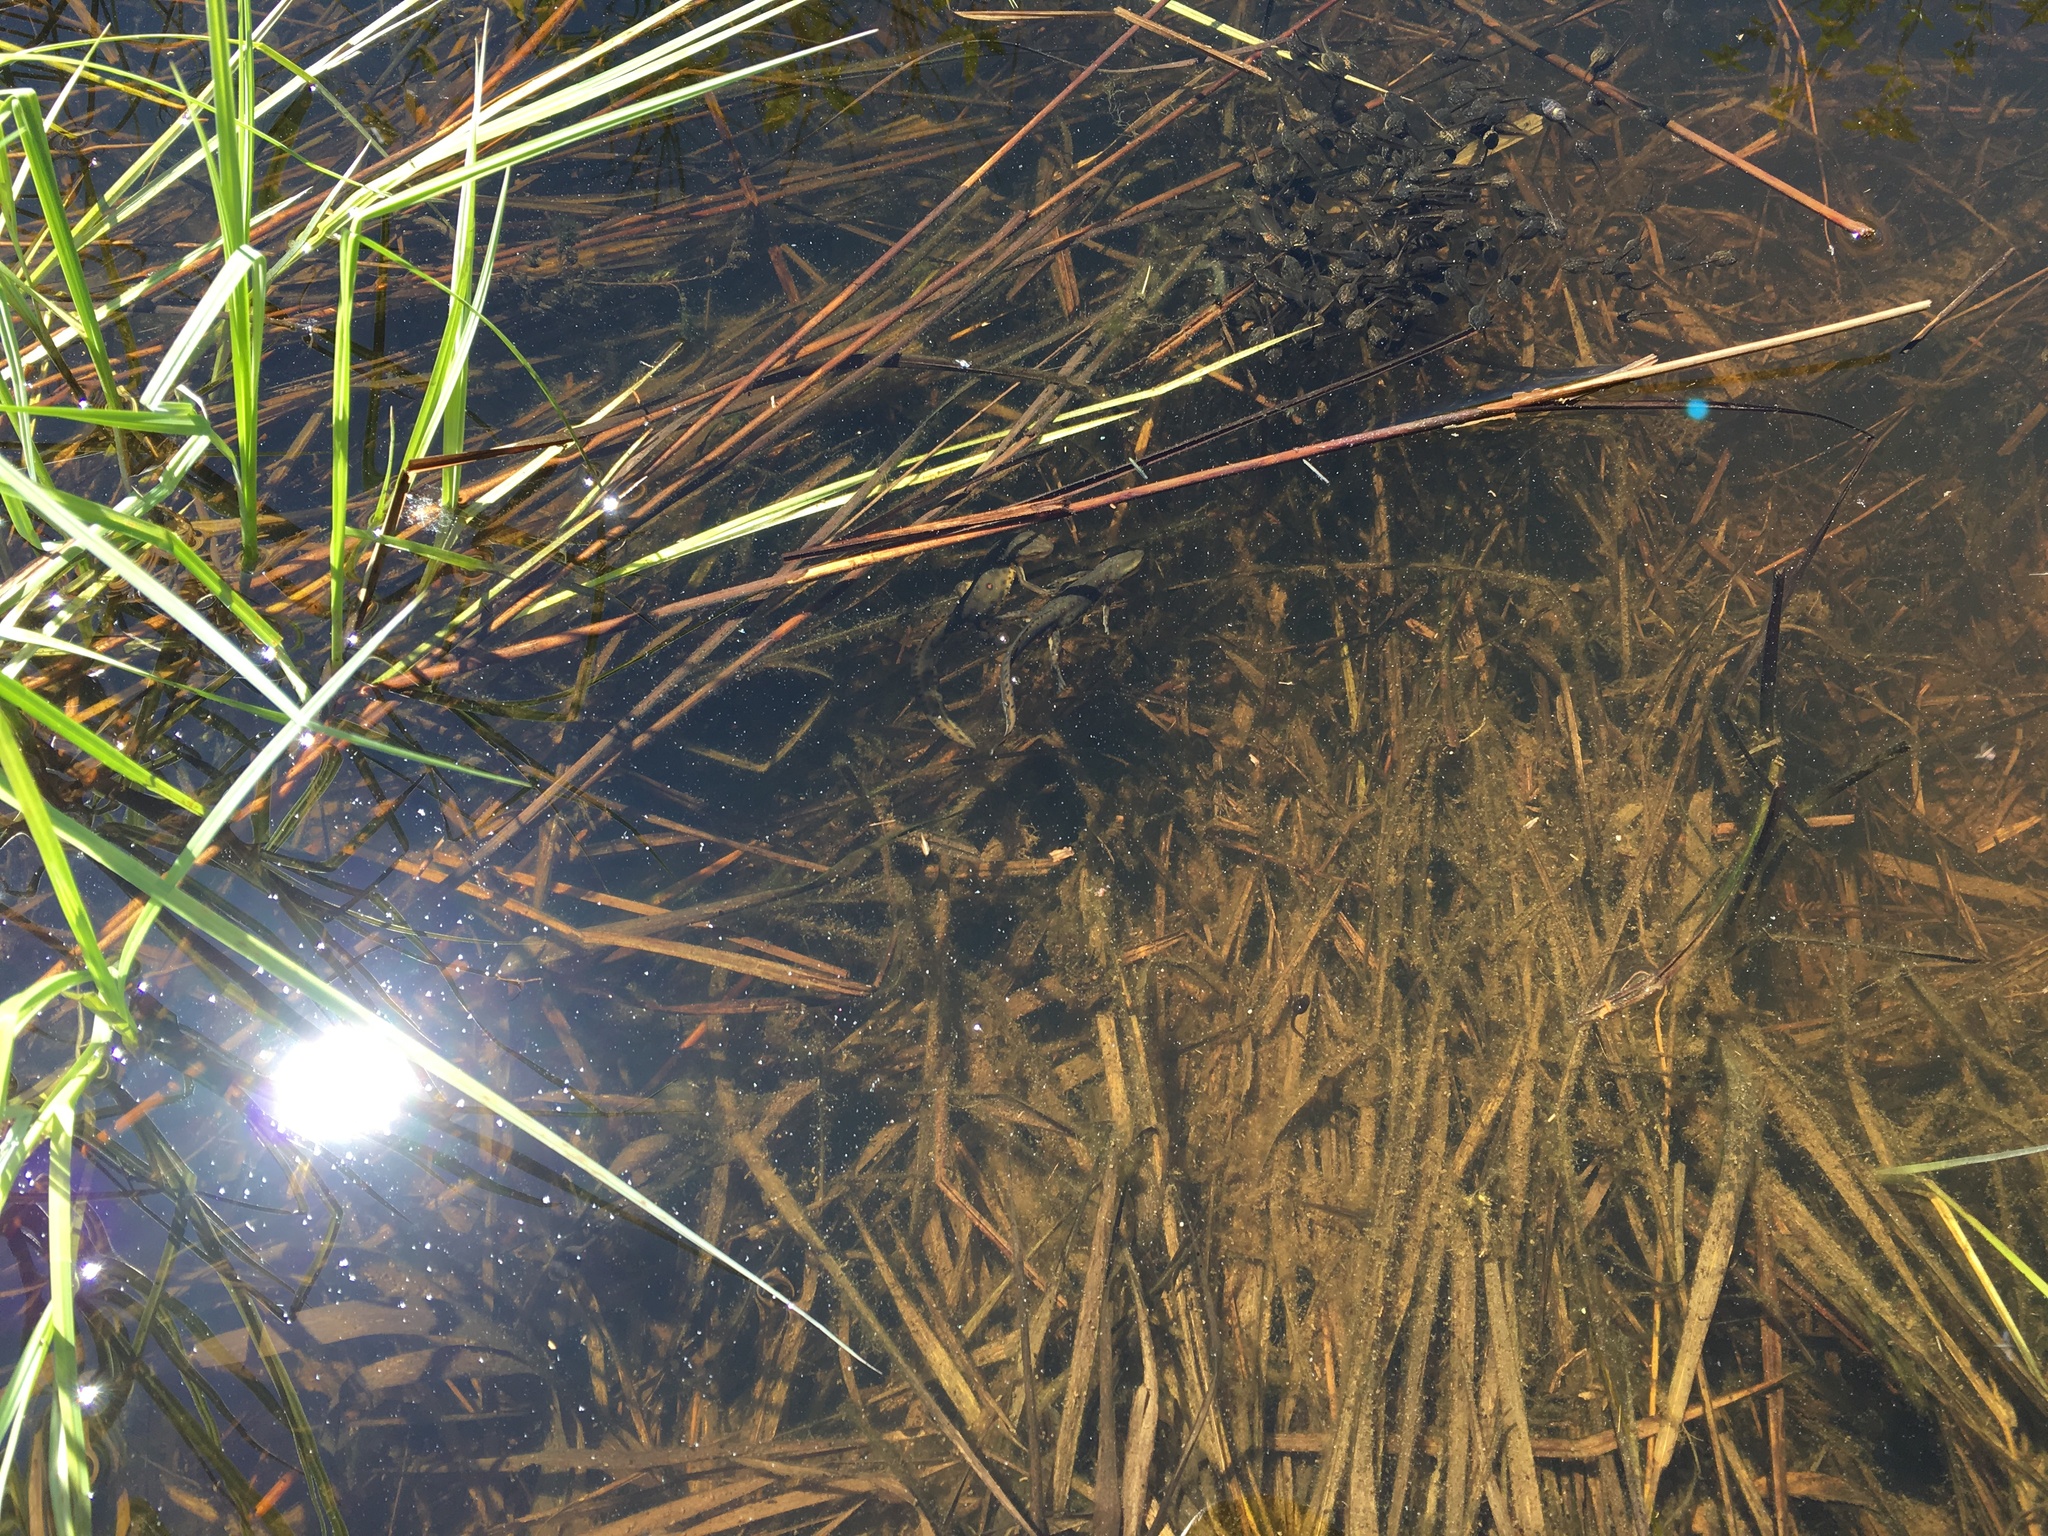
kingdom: Animalia
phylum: Chordata
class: Amphibia
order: Caudata
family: Salamandridae
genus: Notophthalmus
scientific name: Notophthalmus viridescens
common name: Eastern newt
